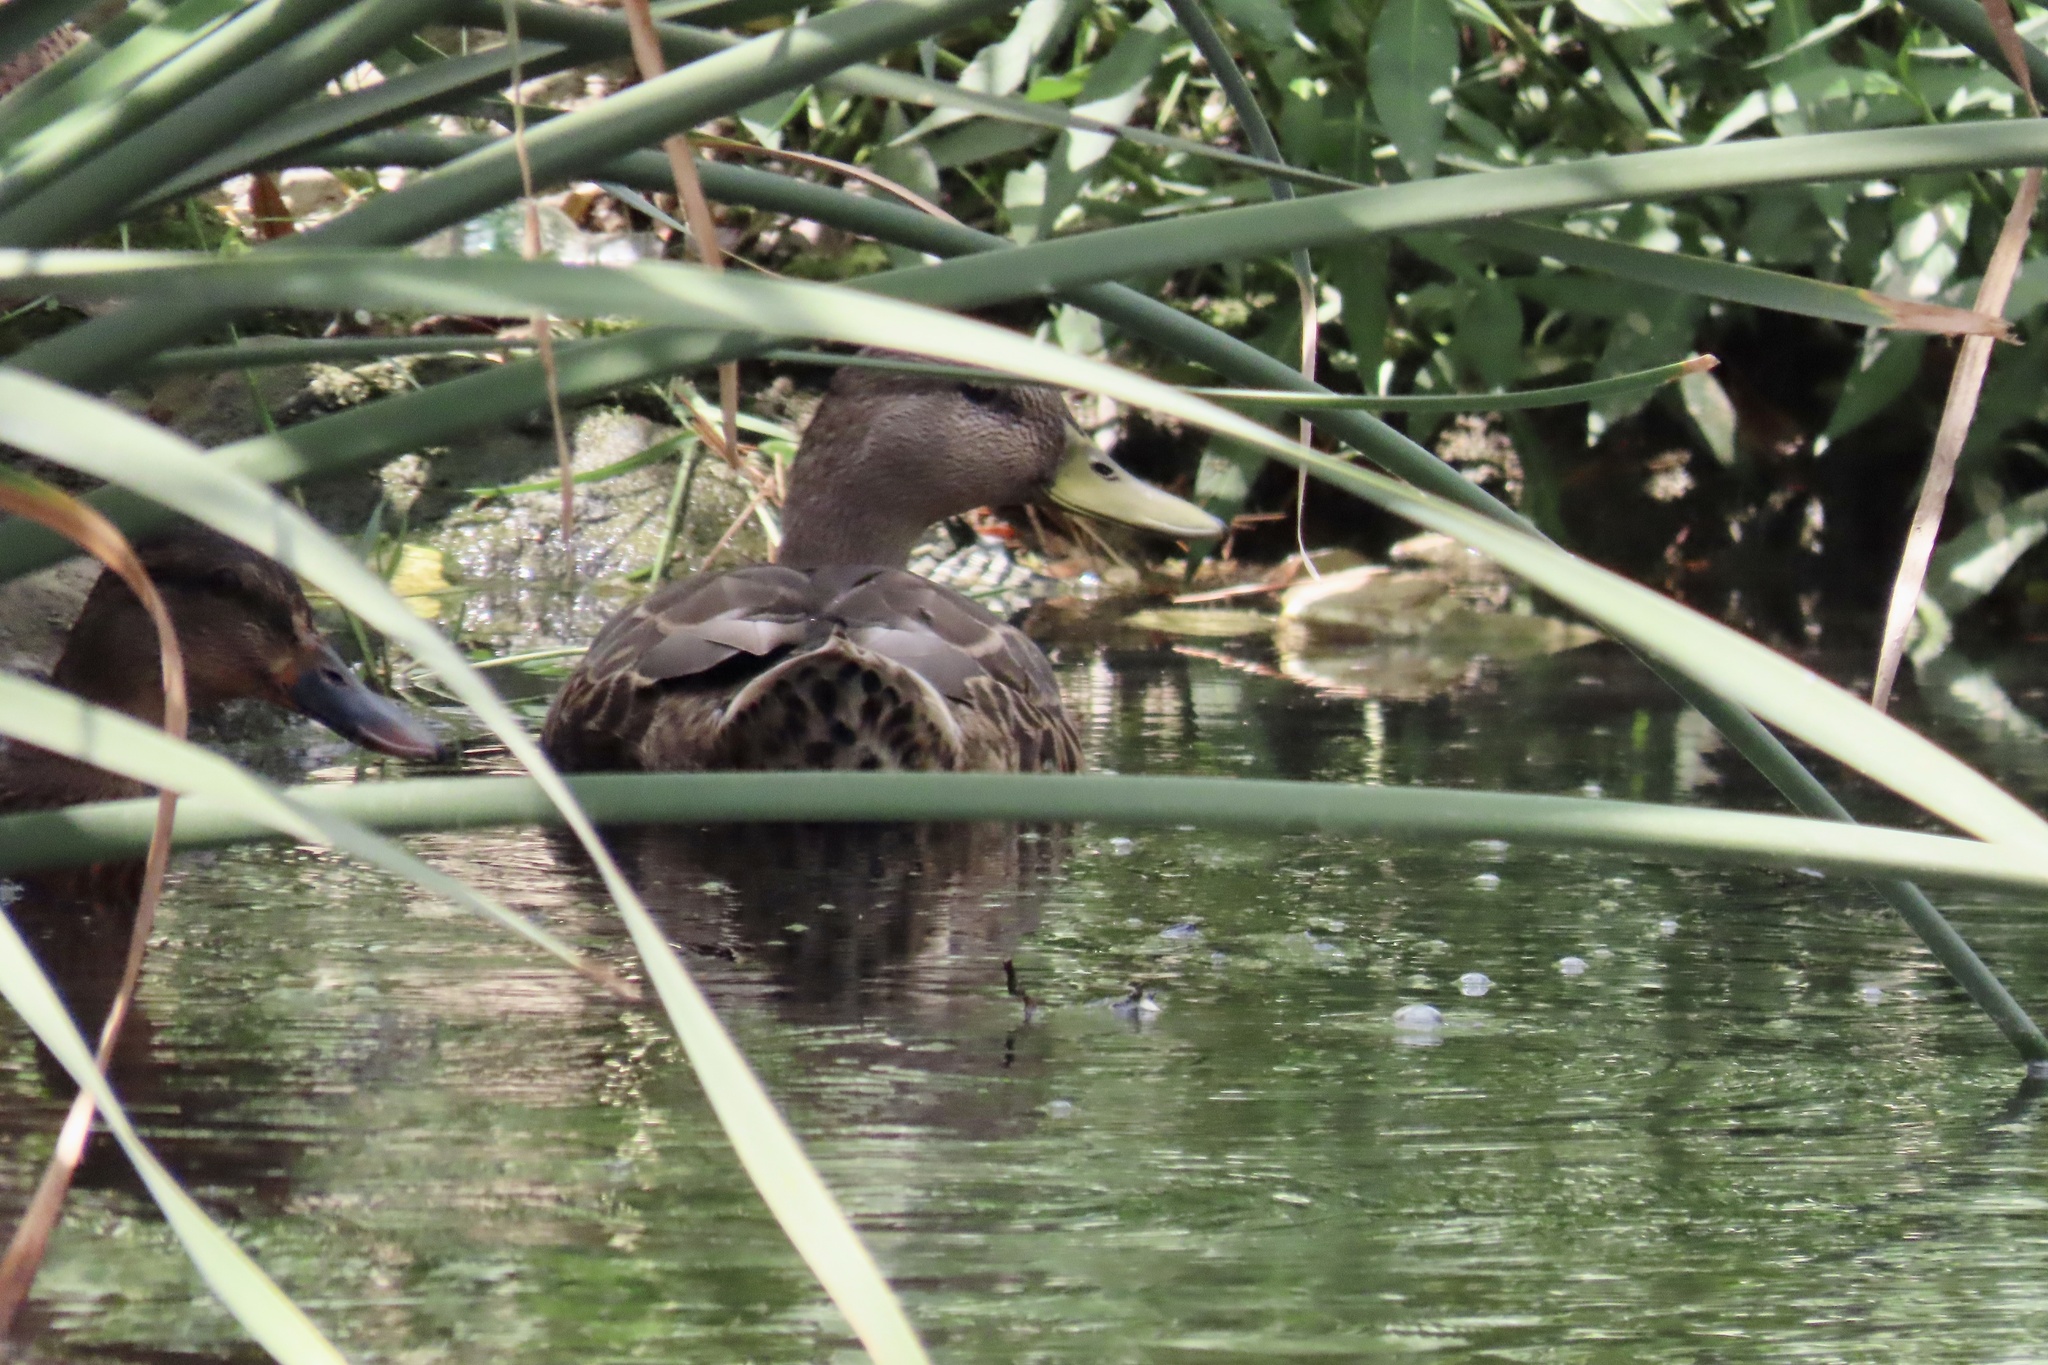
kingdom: Animalia
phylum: Chordata
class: Aves
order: Anseriformes
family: Anatidae
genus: Anas
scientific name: Anas platyrhynchos
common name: Mallard
